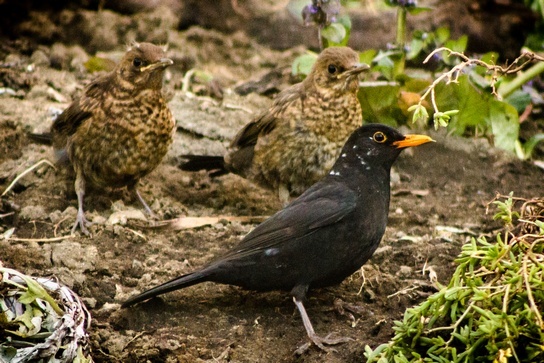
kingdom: Animalia
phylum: Chordata
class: Aves
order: Passeriformes
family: Turdidae
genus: Turdus
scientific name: Turdus merula
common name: Common blackbird
